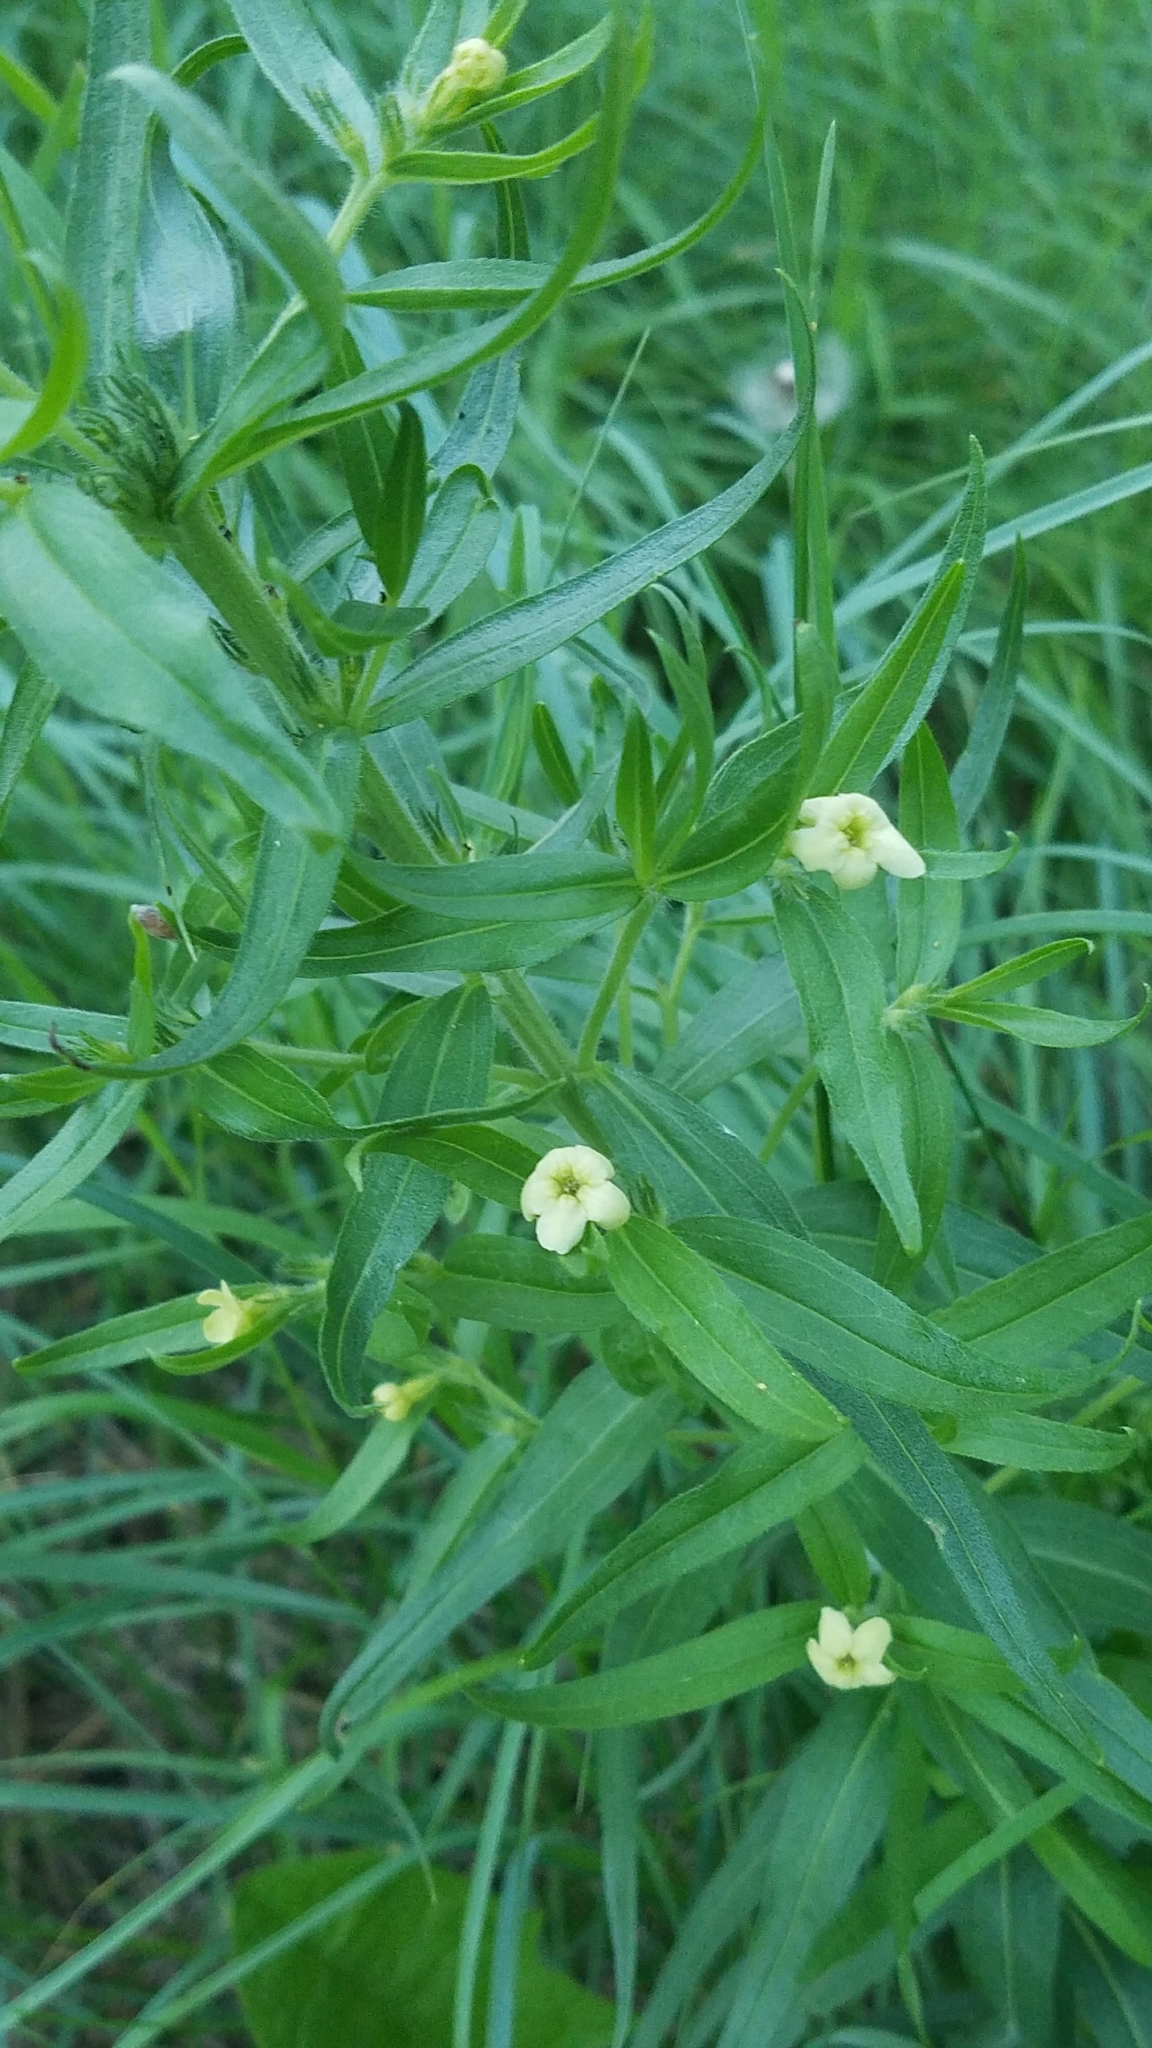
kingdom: Plantae
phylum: Tracheophyta
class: Magnoliopsida
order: Boraginales
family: Boraginaceae
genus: Lithospermum
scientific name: Lithospermum ruderale
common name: Western gromwell
